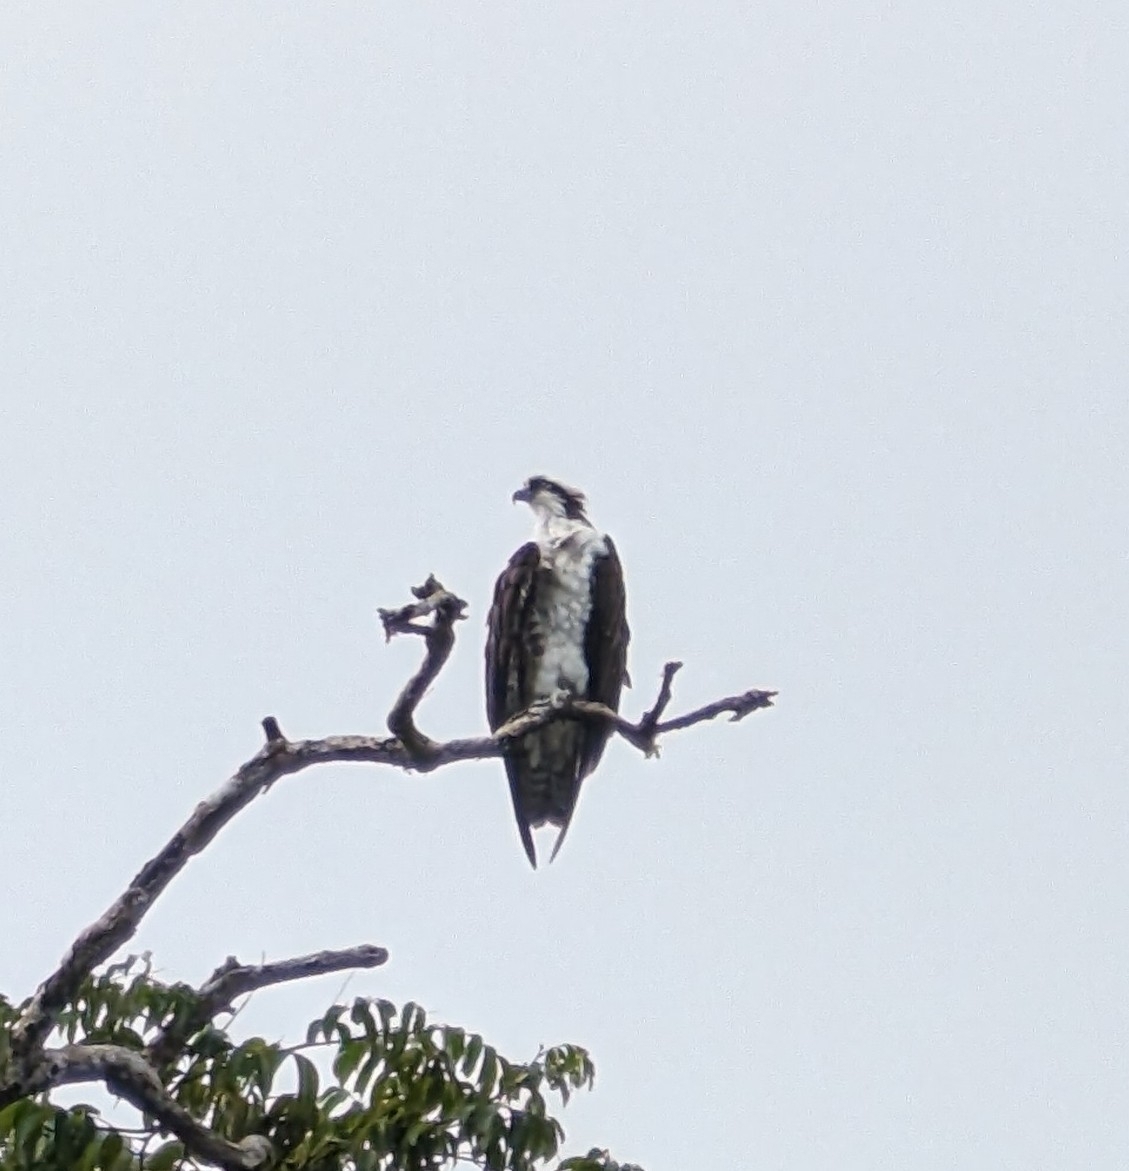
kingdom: Animalia
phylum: Chordata
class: Aves
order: Accipitriformes
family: Pandionidae
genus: Pandion
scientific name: Pandion haliaetus
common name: Osprey
